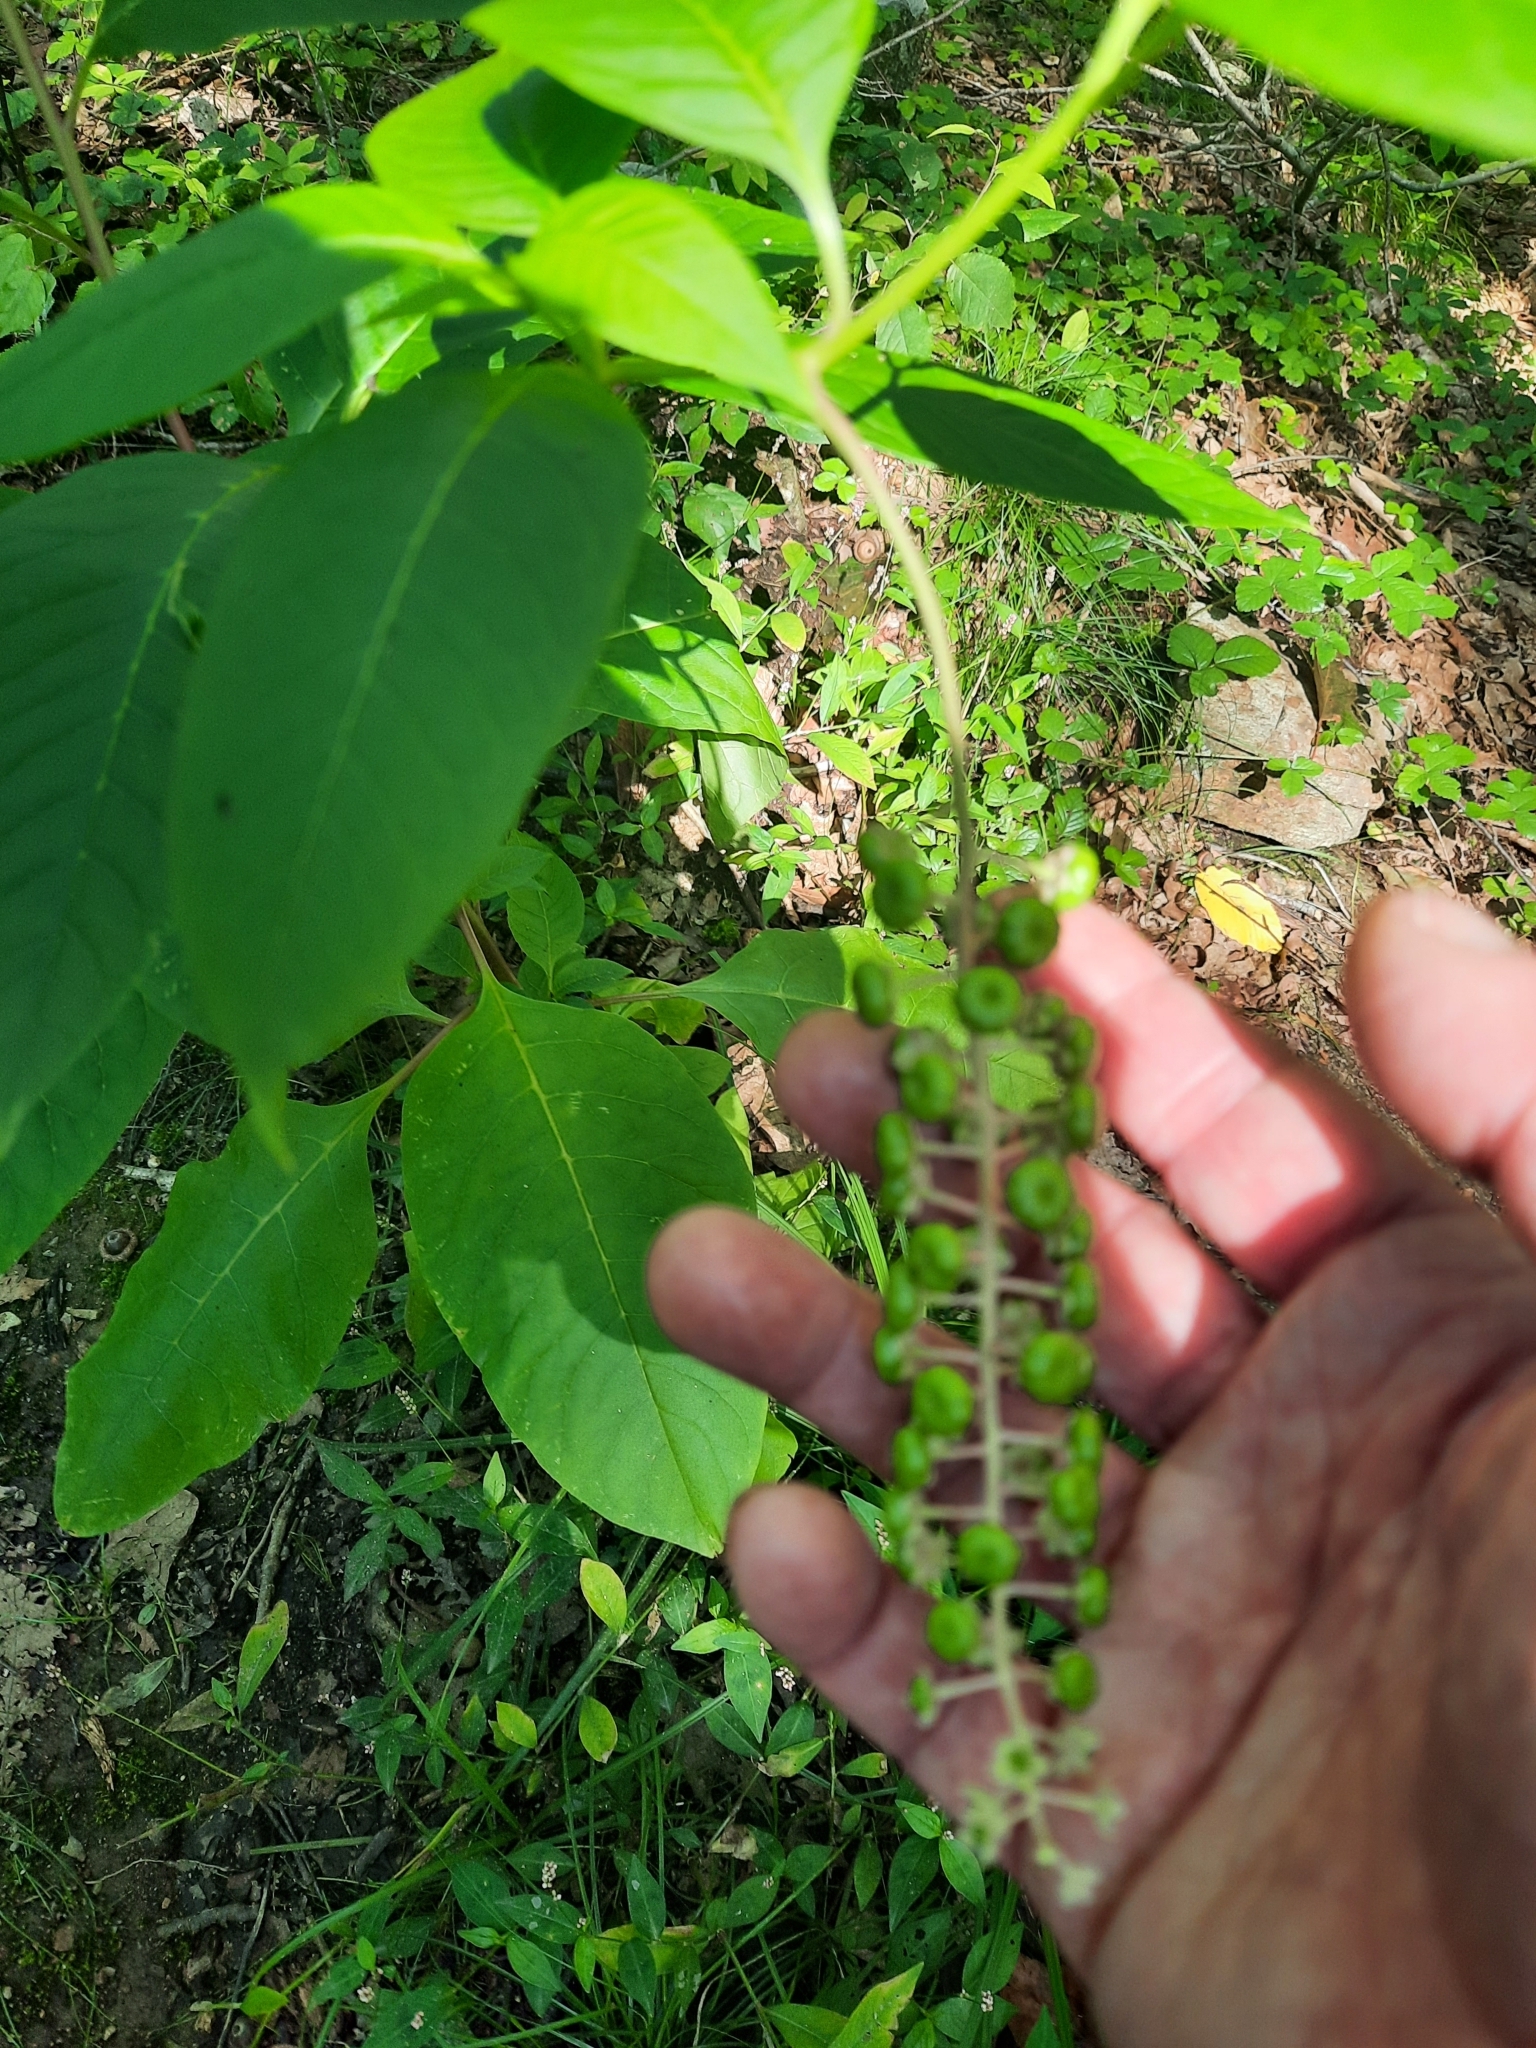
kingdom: Plantae
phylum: Tracheophyta
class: Magnoliopsida
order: Caryophyllales
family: Phytolaccaceae
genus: Phytolacca
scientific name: Phytolacca americana
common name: American pokeweed
